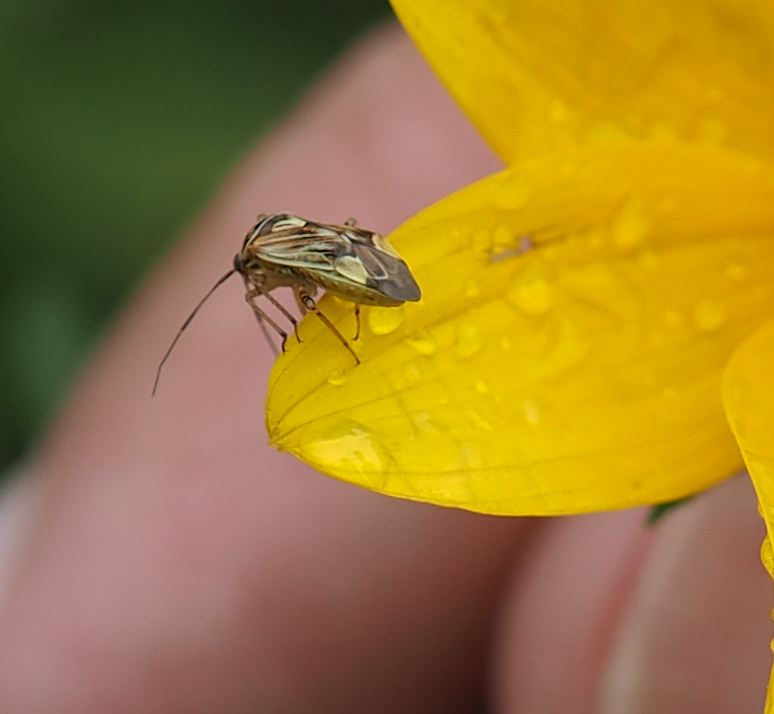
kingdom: Animalia
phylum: Arthropoda
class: Insecta
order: Hemiptera
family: Miridae
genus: Lygus
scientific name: Lygus lineolaris
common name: North american tarnished plant bug
